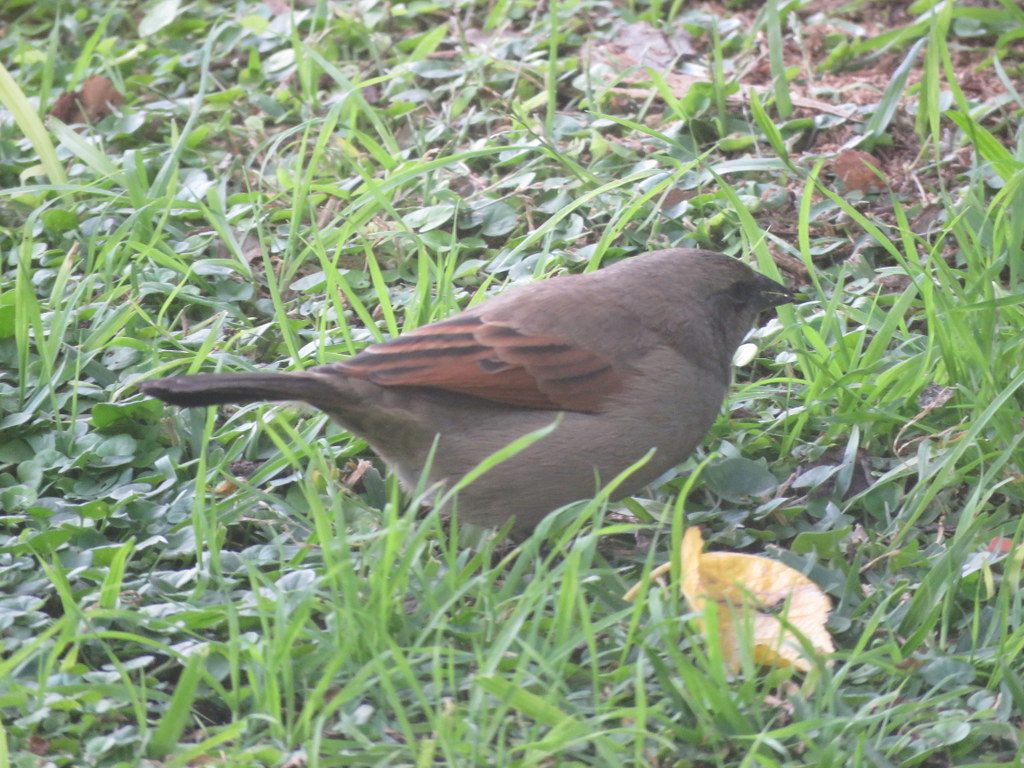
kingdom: Animalia
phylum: Chordata
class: Aves
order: Passeriformes
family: Icteridae
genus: Agelaioides
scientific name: Agelaioides badius
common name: Baywing
